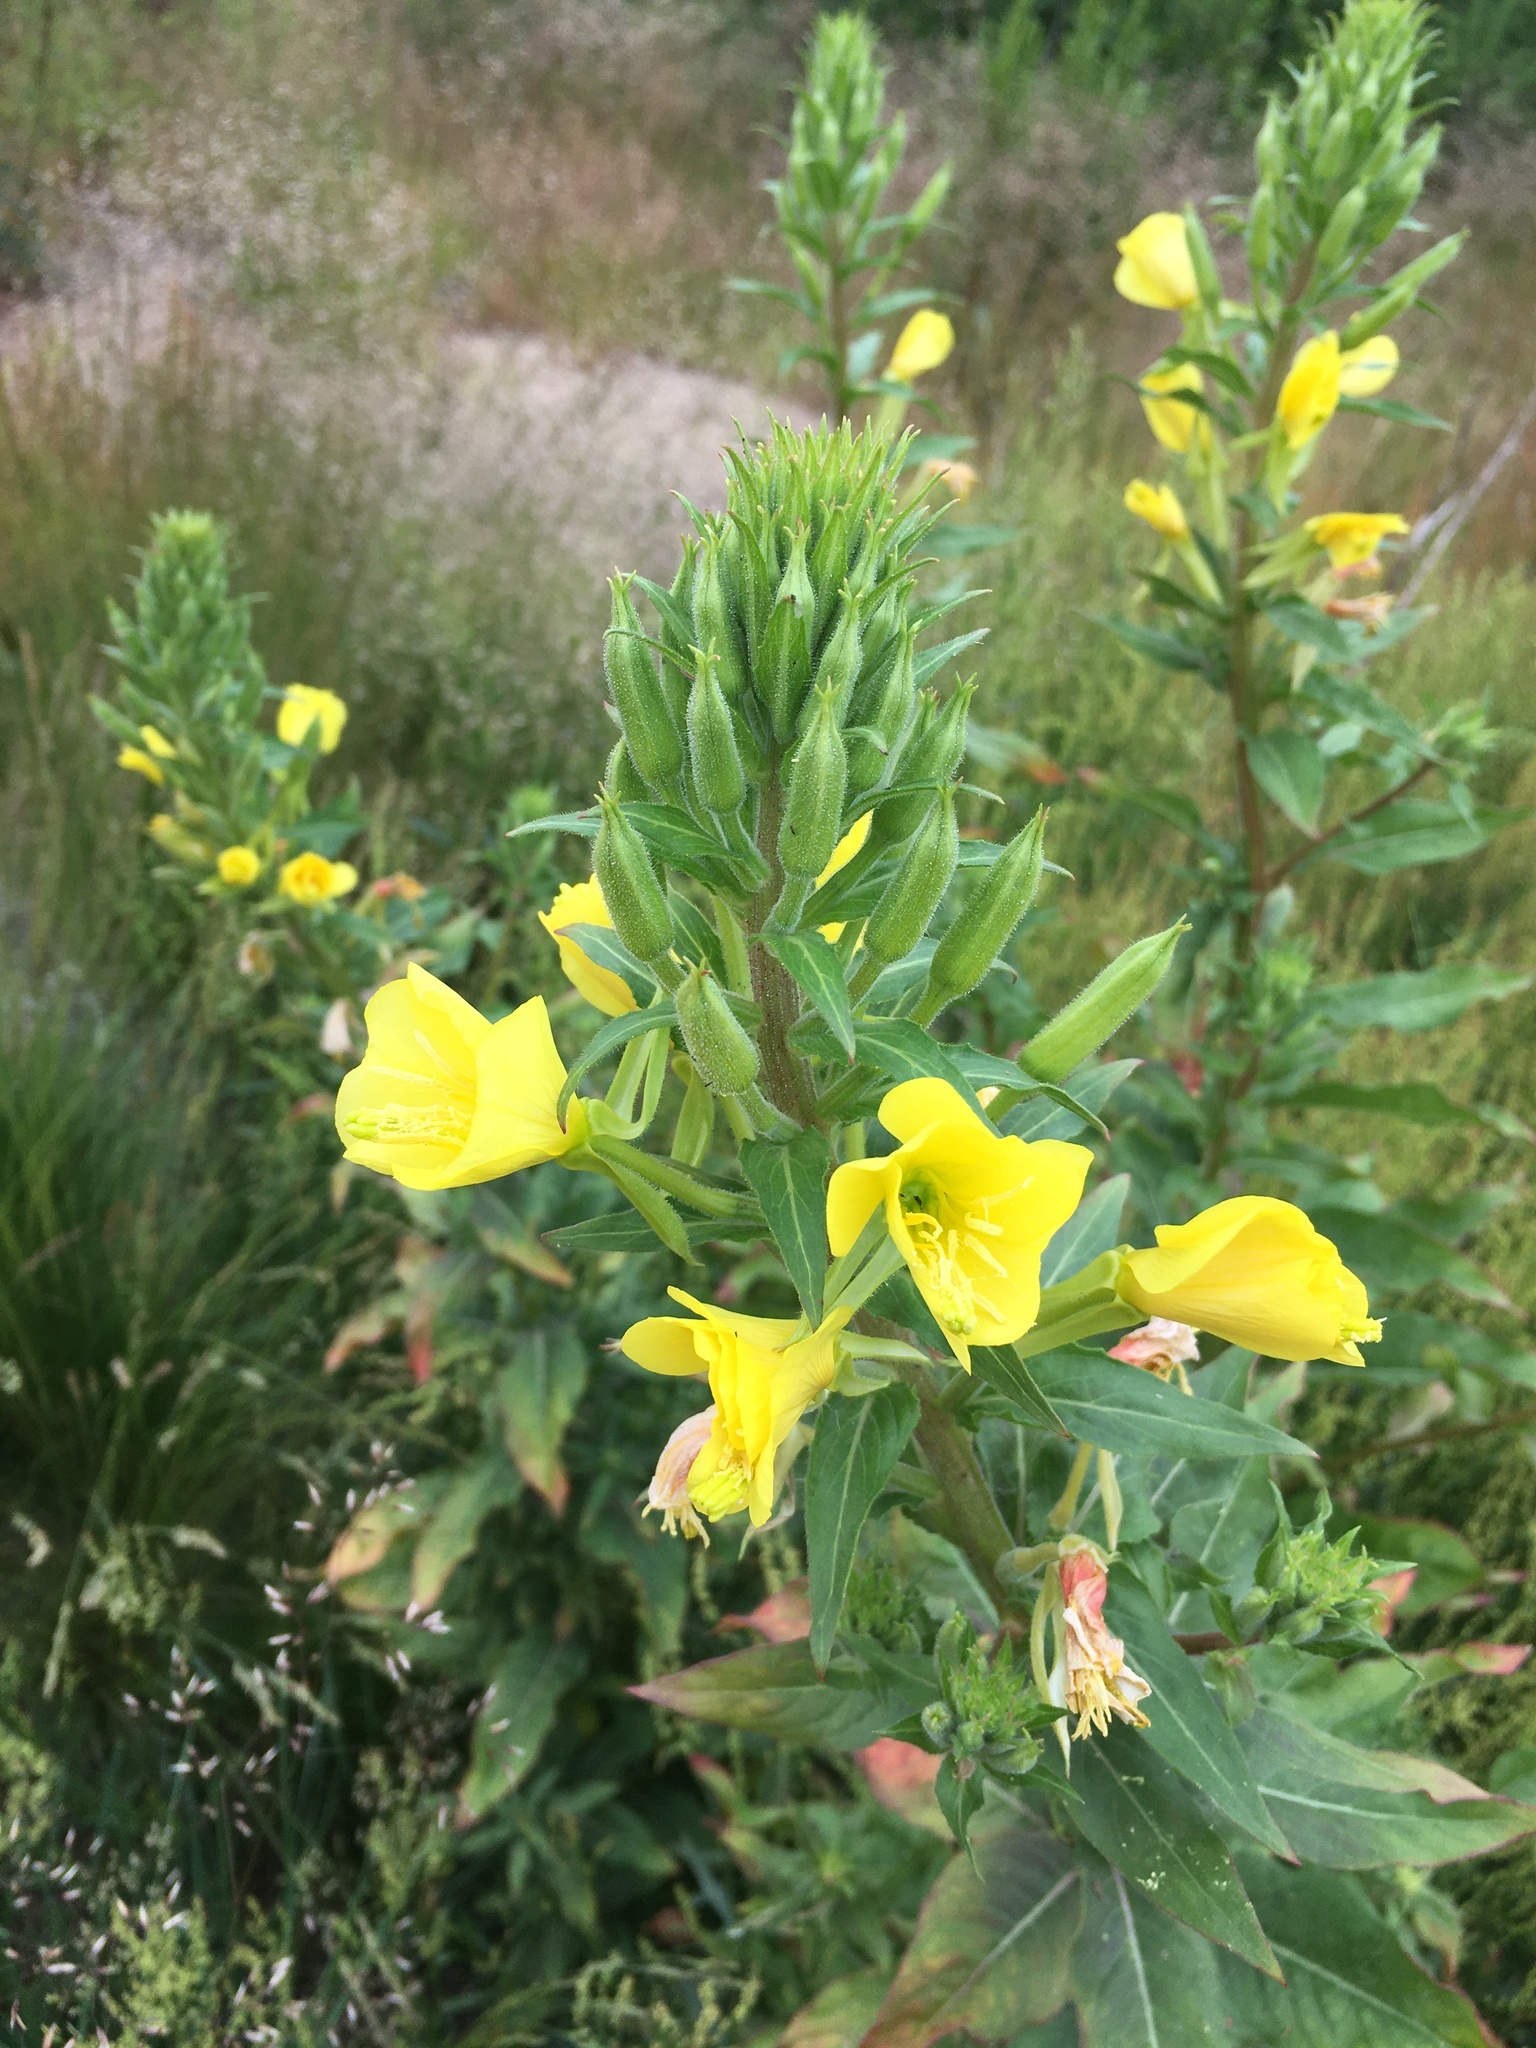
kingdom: Plantae
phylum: Tracheophyta
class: Magnoliopsida
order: Myrtales
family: Onagraceae
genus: Oenothera
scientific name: Oenothera rubricaulis
